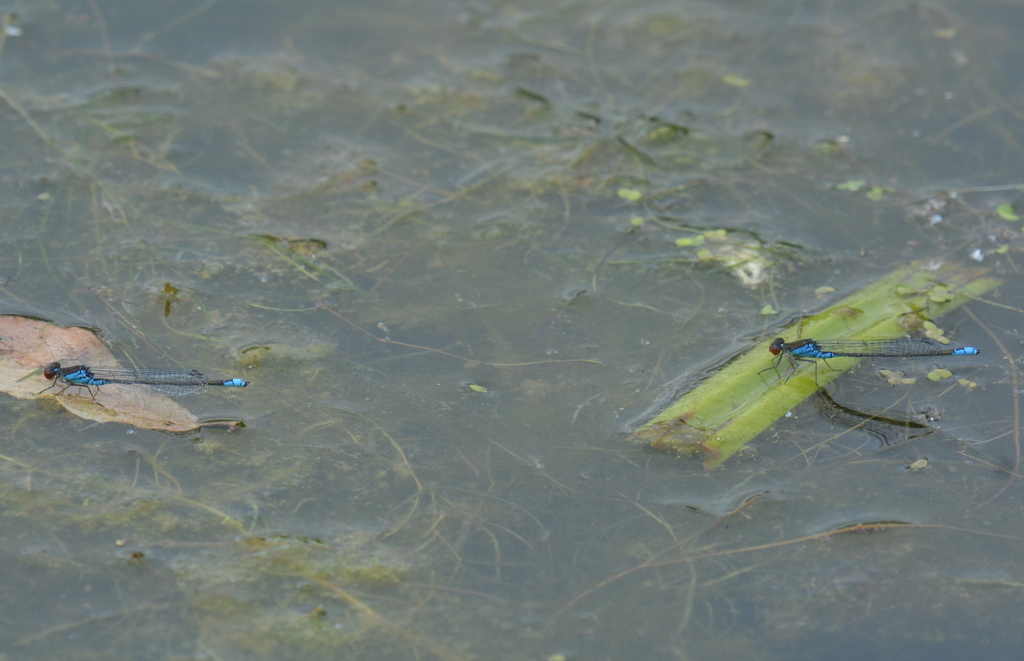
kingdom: Animalia
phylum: Arthropoda
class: Insecta
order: Odonata
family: Coenagrionidae
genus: Erythromma
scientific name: Erythromma viridulum
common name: Small red-eyed damselfly
